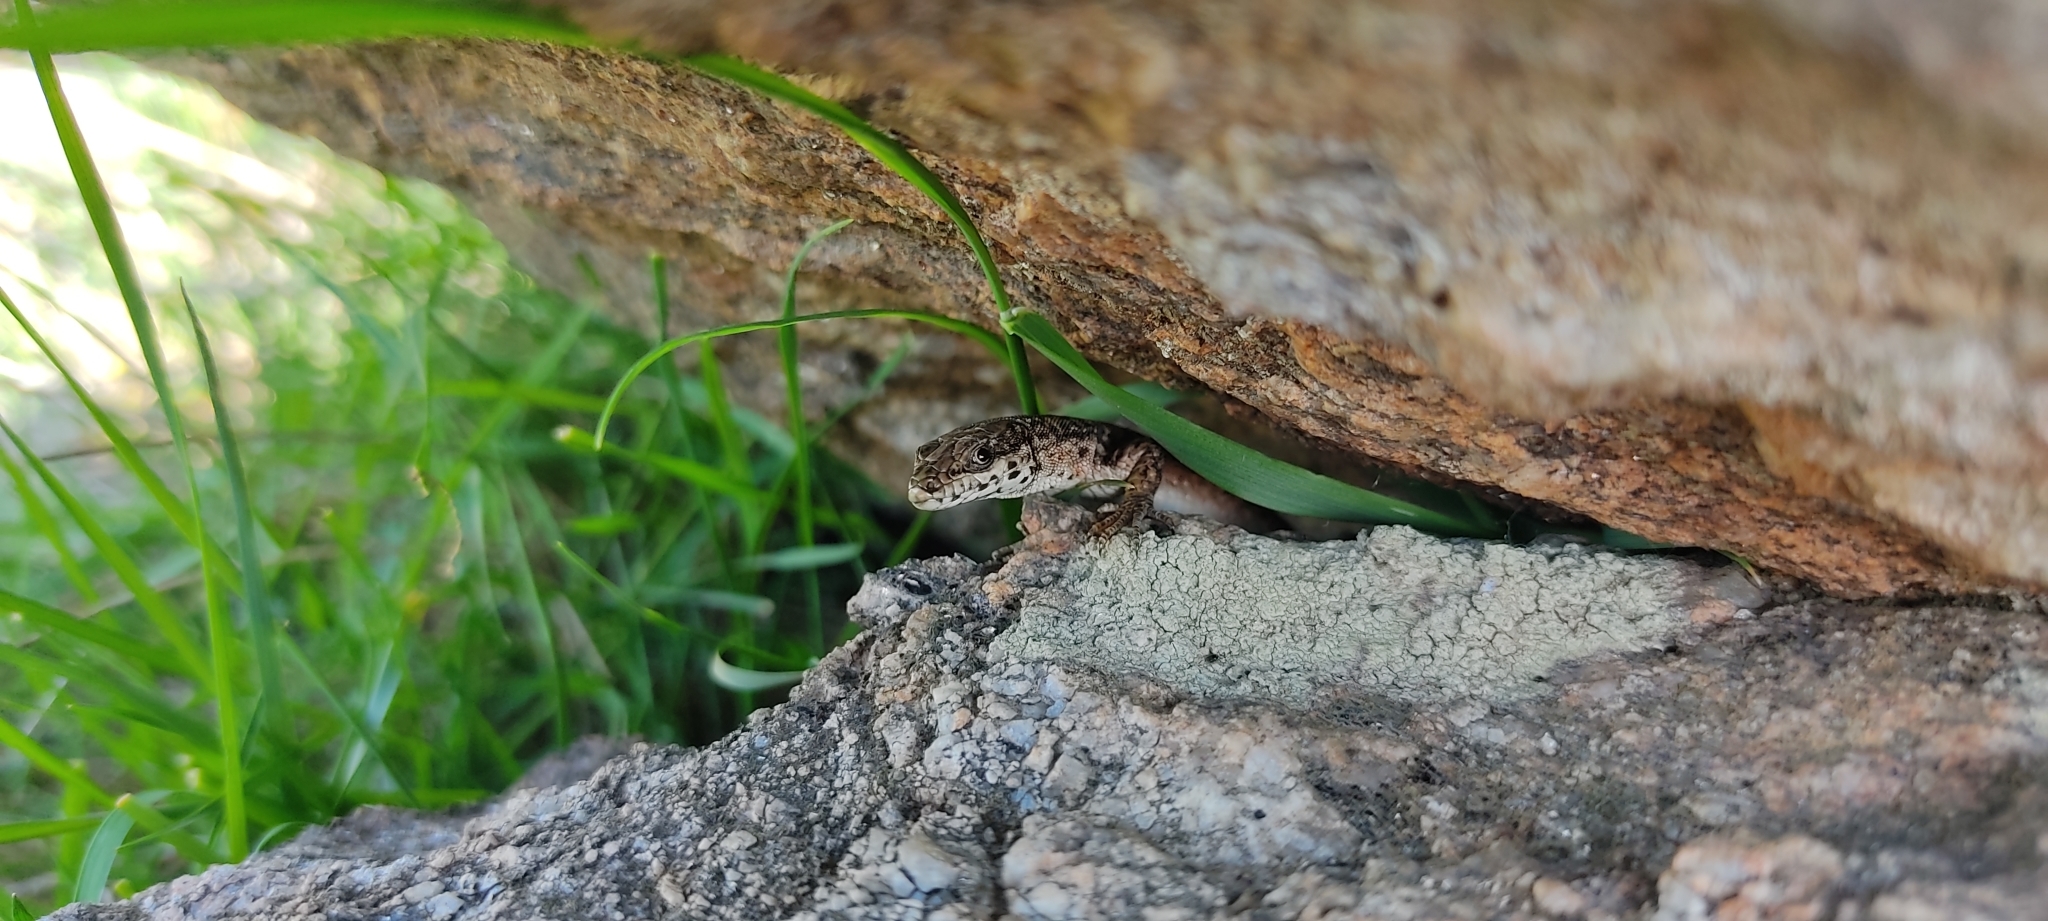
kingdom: Animalia
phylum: Chordata
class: Squamata
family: Lacertidae
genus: Podarcis
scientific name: Podarcis liolepis
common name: Catalonian wall lizard
